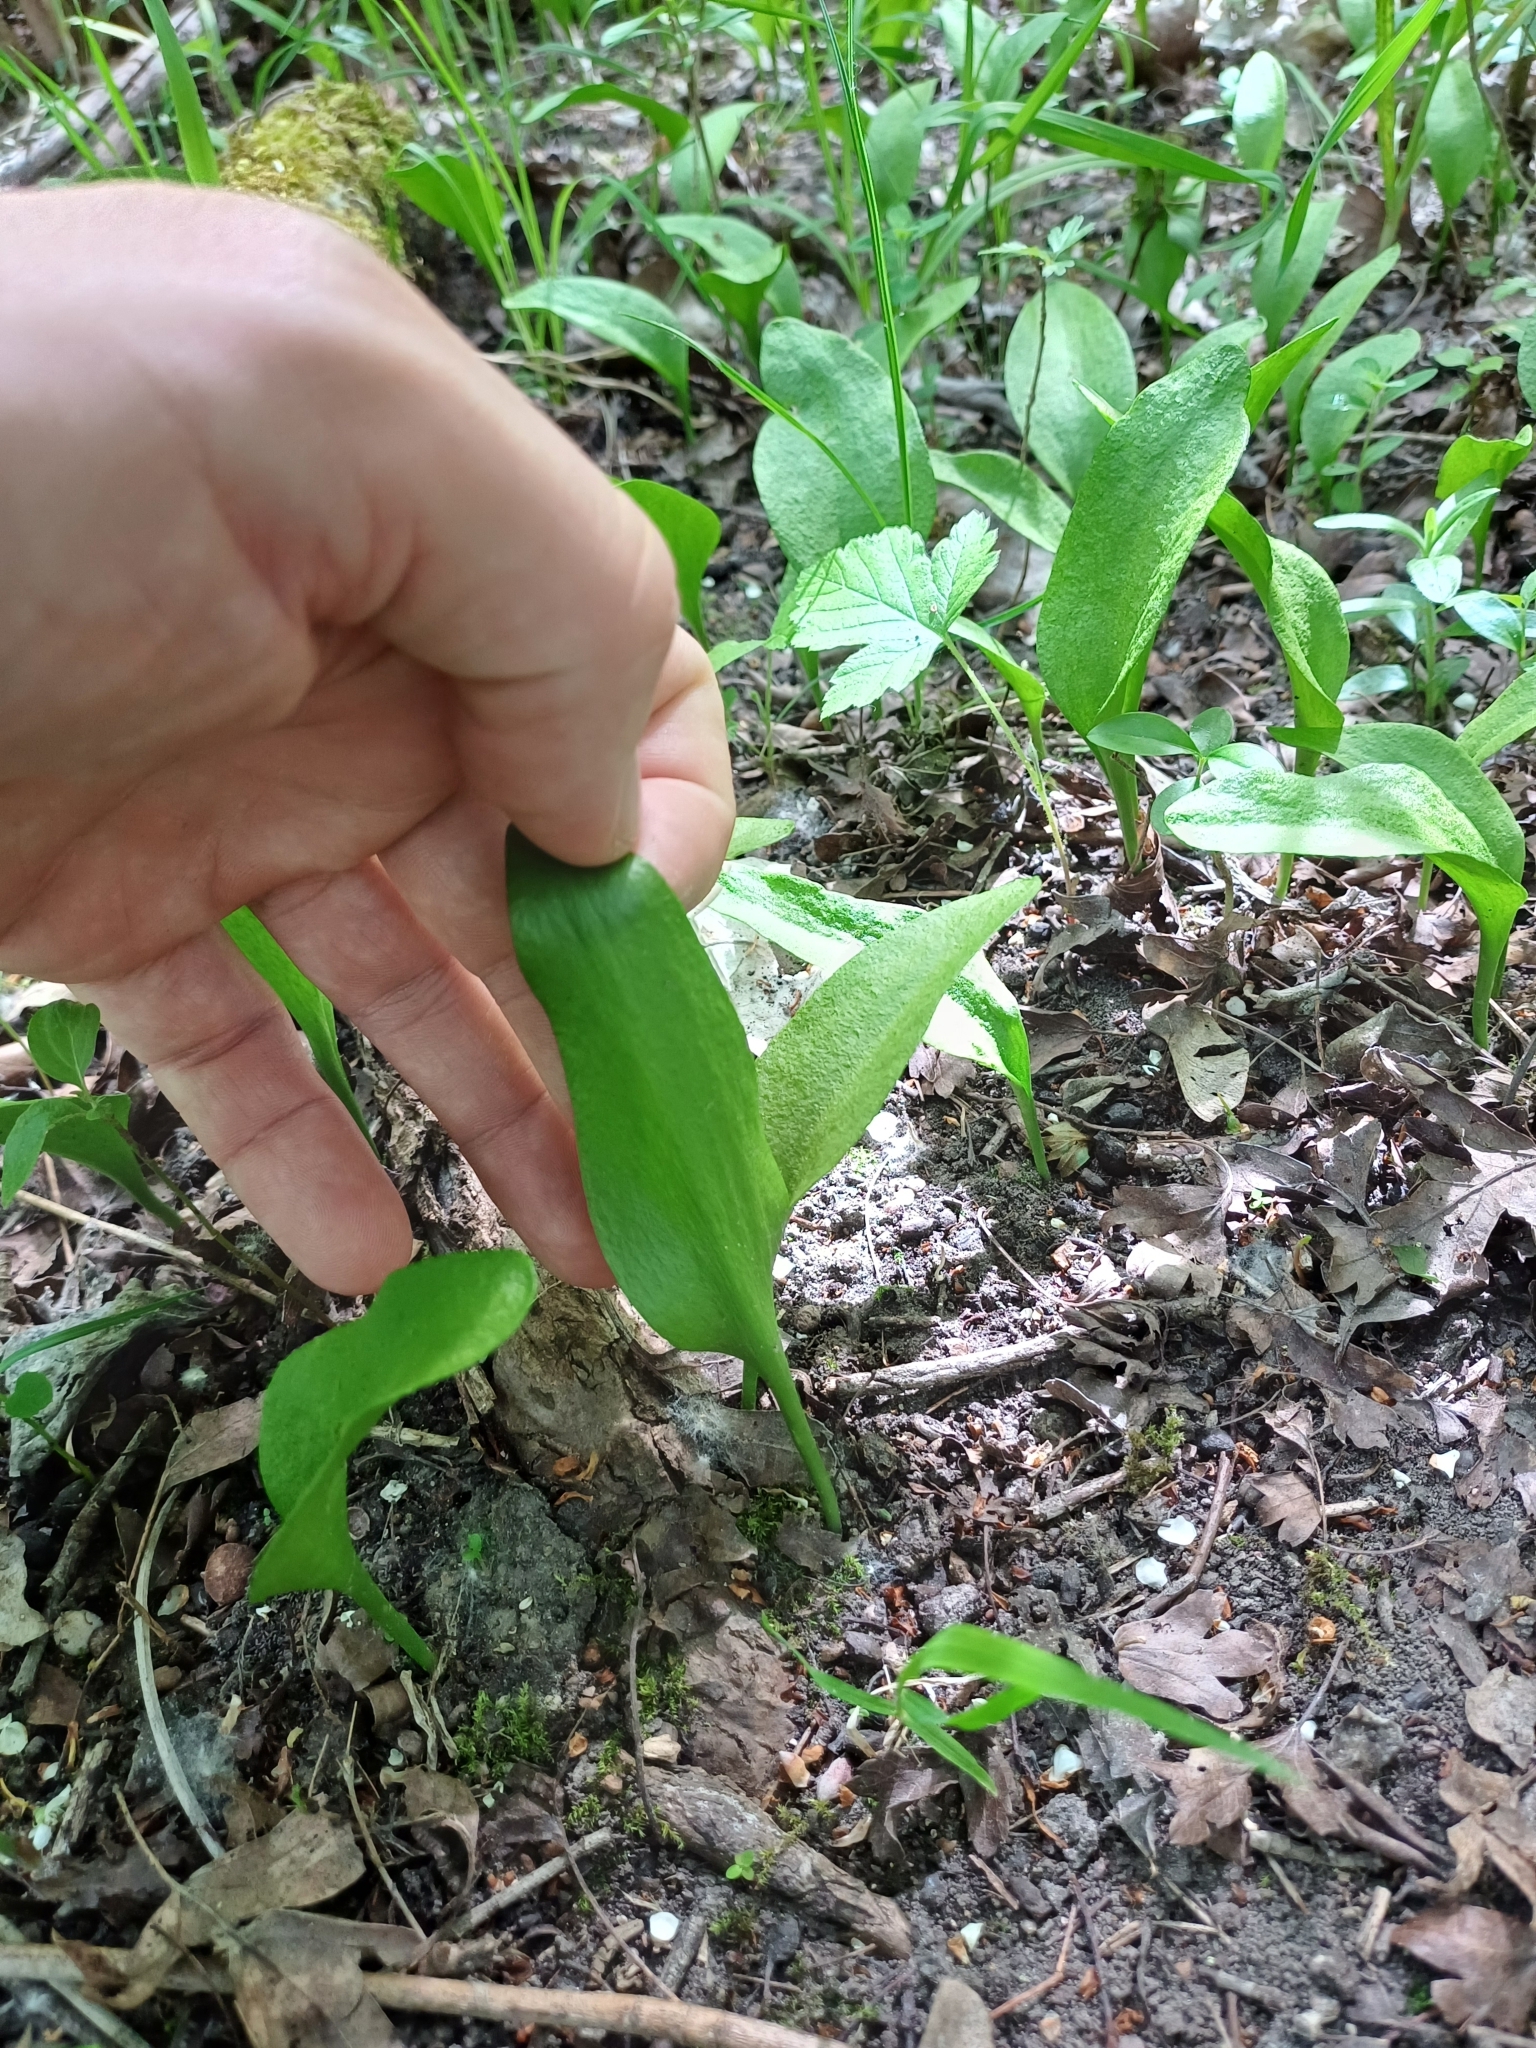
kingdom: Plantae
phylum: Tracheophyta
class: Polypodiopsida
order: Ophioglossales
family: Ophioglossaceae
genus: Ophioglossum
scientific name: Ophioglossum vulgatum
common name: Adder's-tongue
